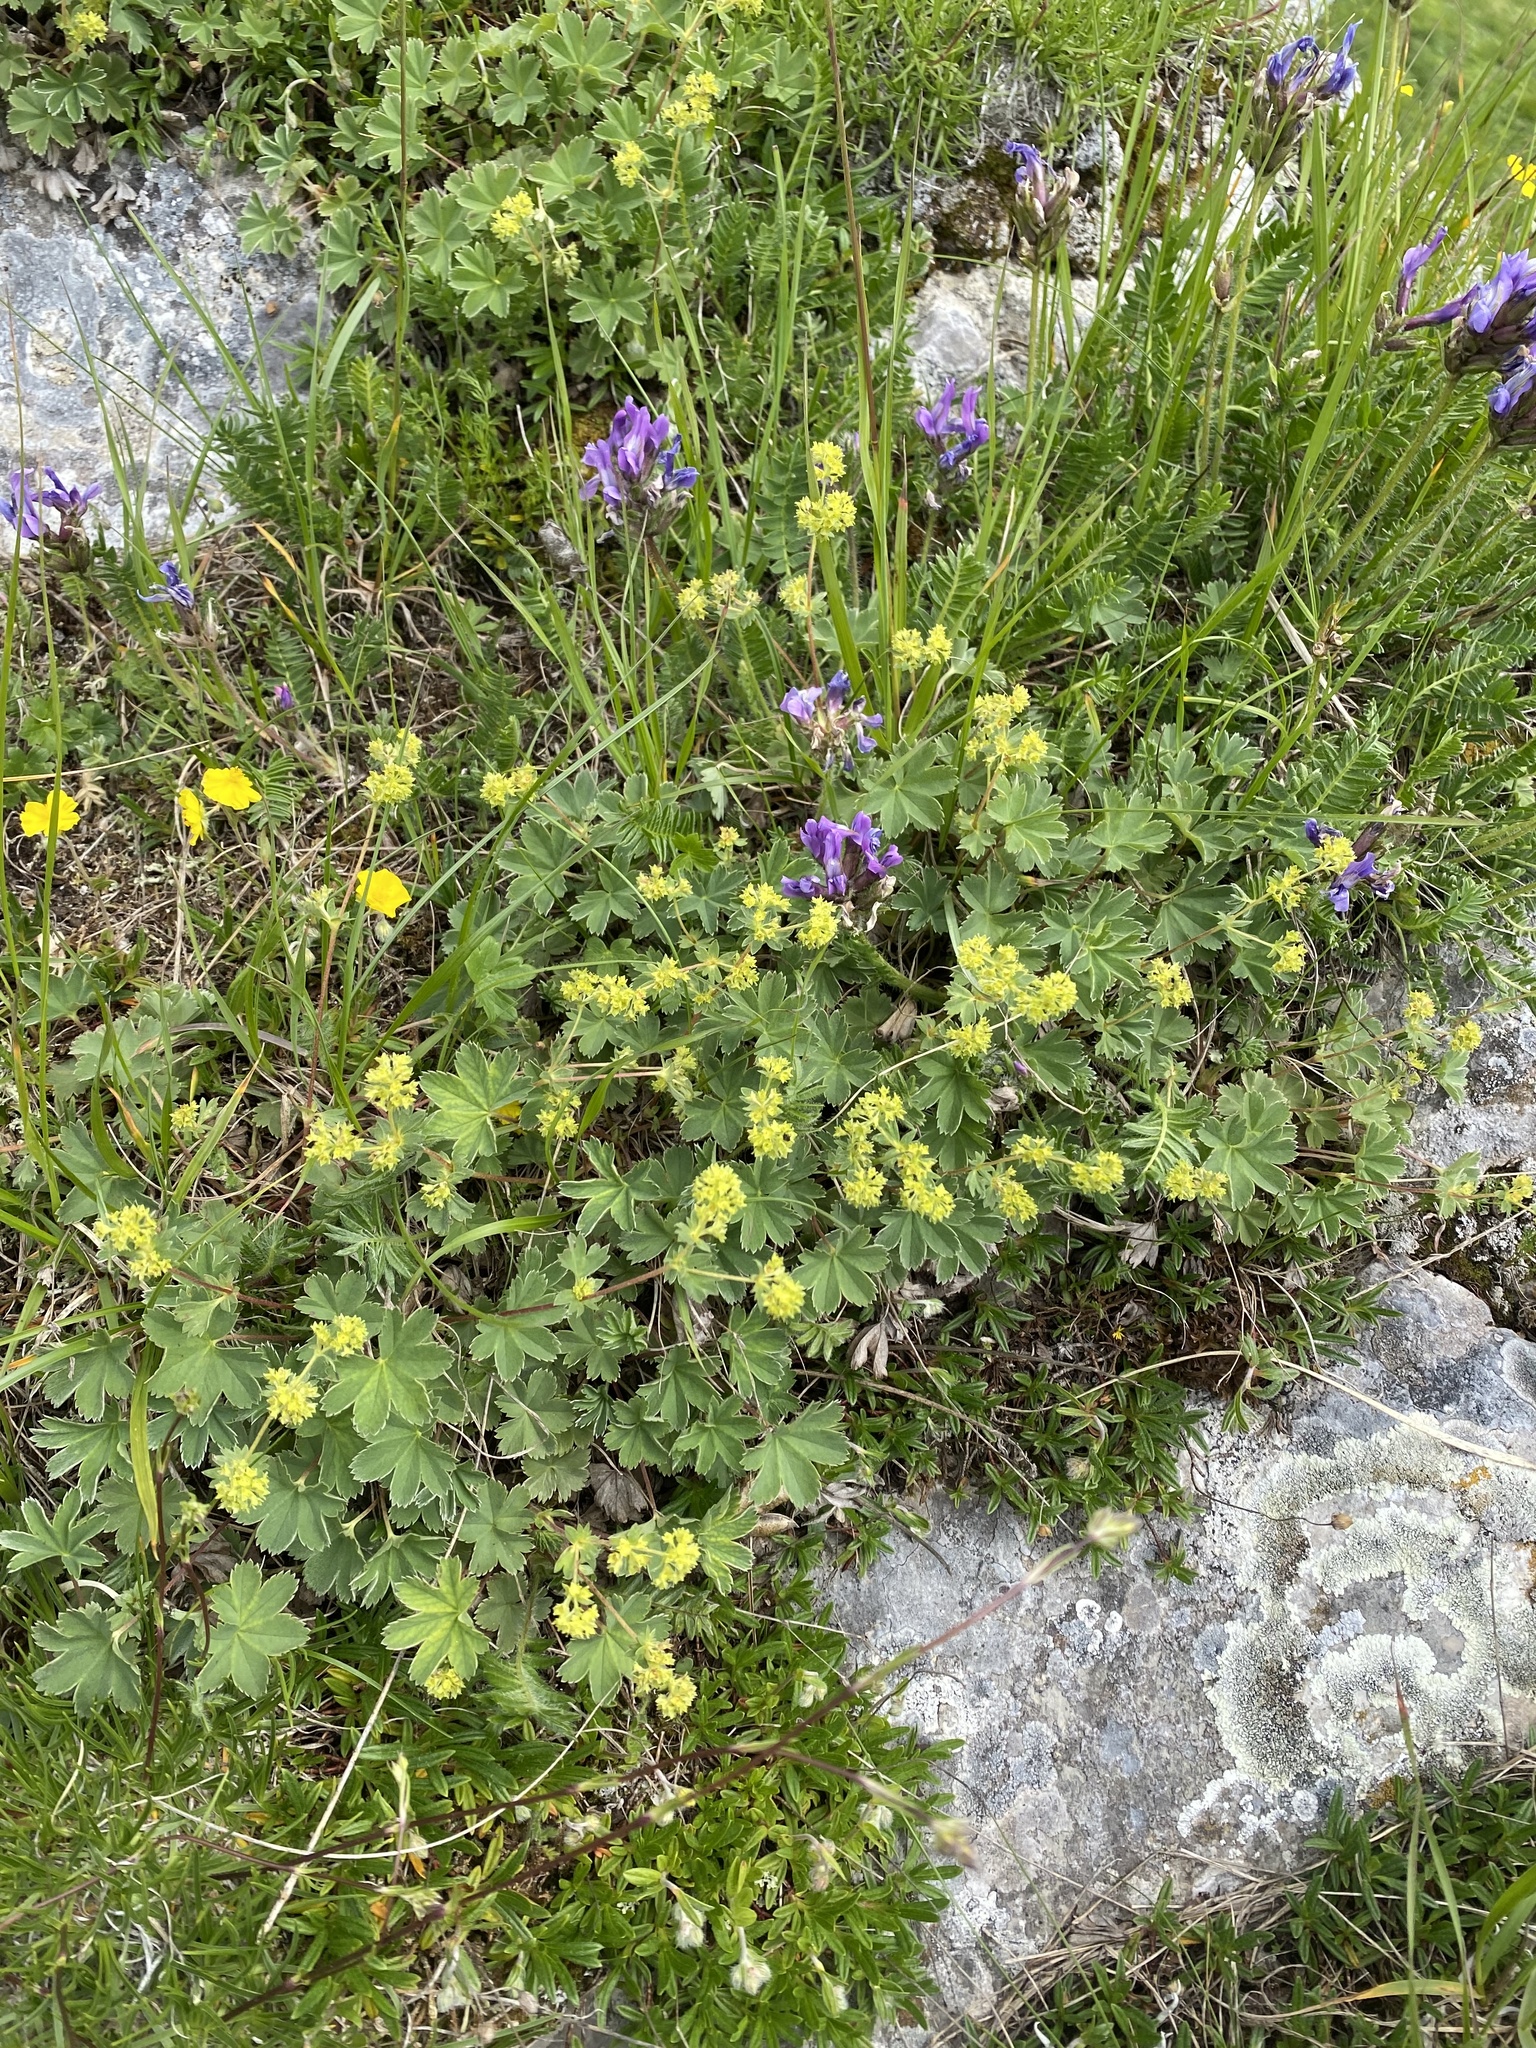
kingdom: Plantae
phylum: Tracheophyta
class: Magnoliopsida
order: Fabales
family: Fabaceae
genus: Oxytropis
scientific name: Oxytropis lazica
